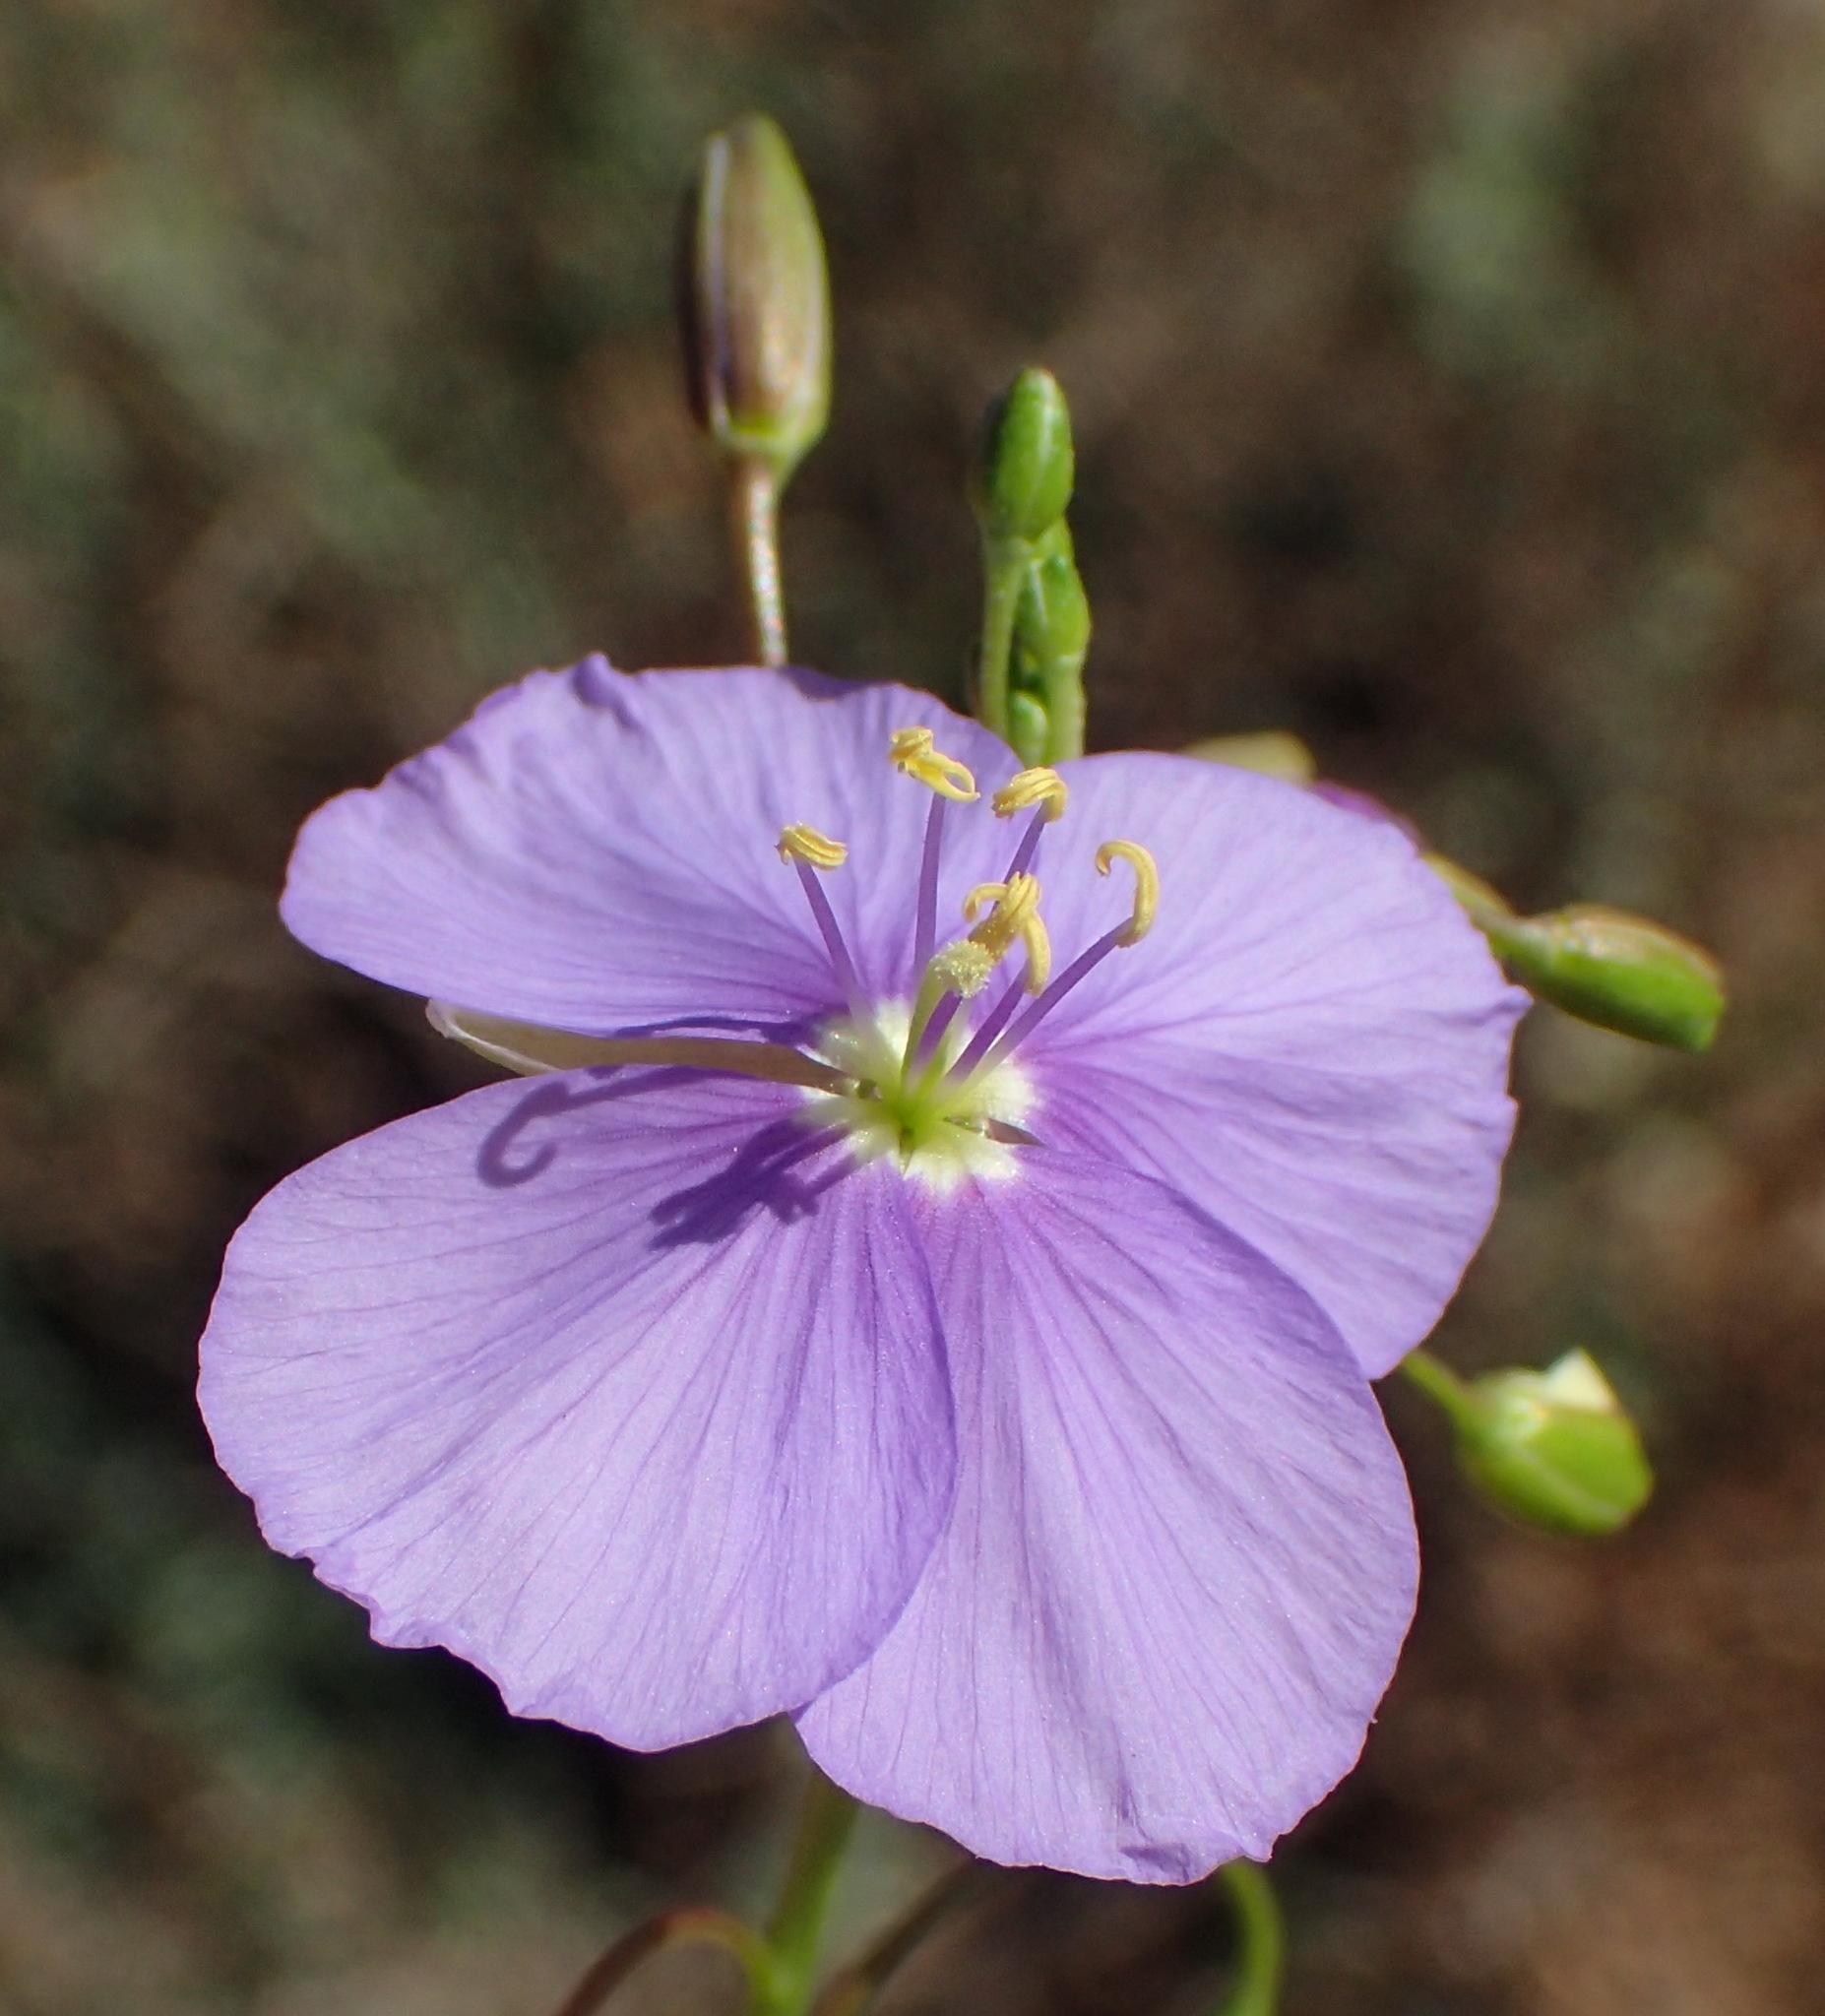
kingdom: Plantae
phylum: Tracheophyta
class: Magnoliopsida
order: Brassicales
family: Brassicaceae
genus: Heliophila
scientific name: Heliophila suavissima
